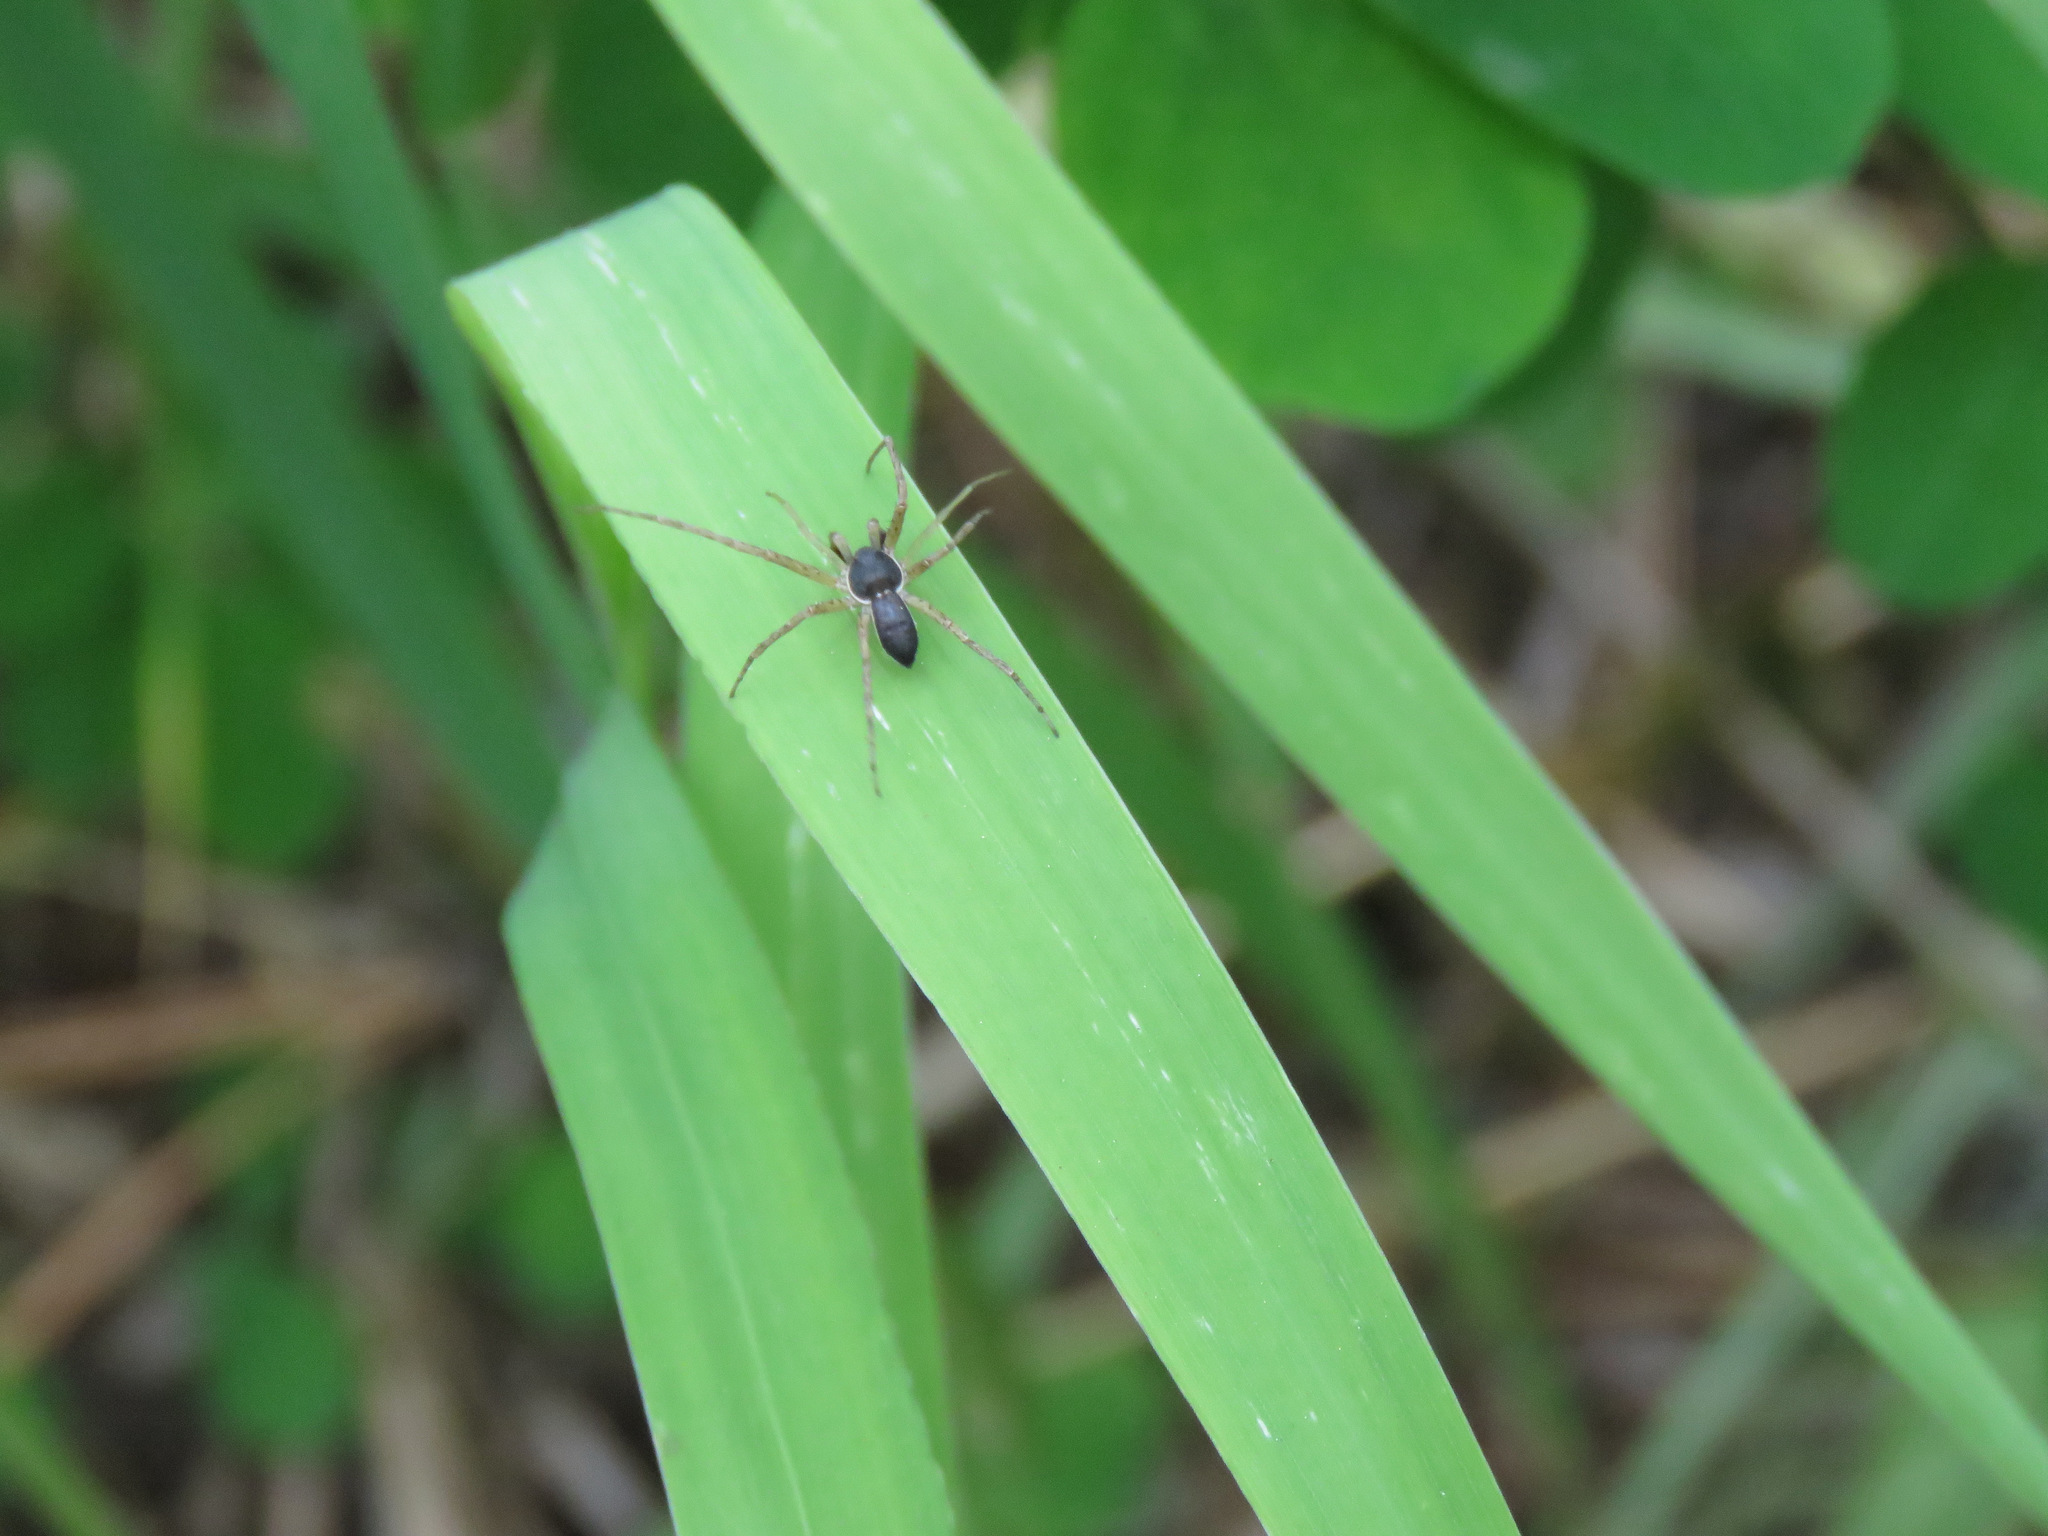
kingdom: Animalia
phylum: Arthropoda
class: Arachnida
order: Araneae
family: Philodromidae
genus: Philodromus
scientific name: Philodromus dispar
